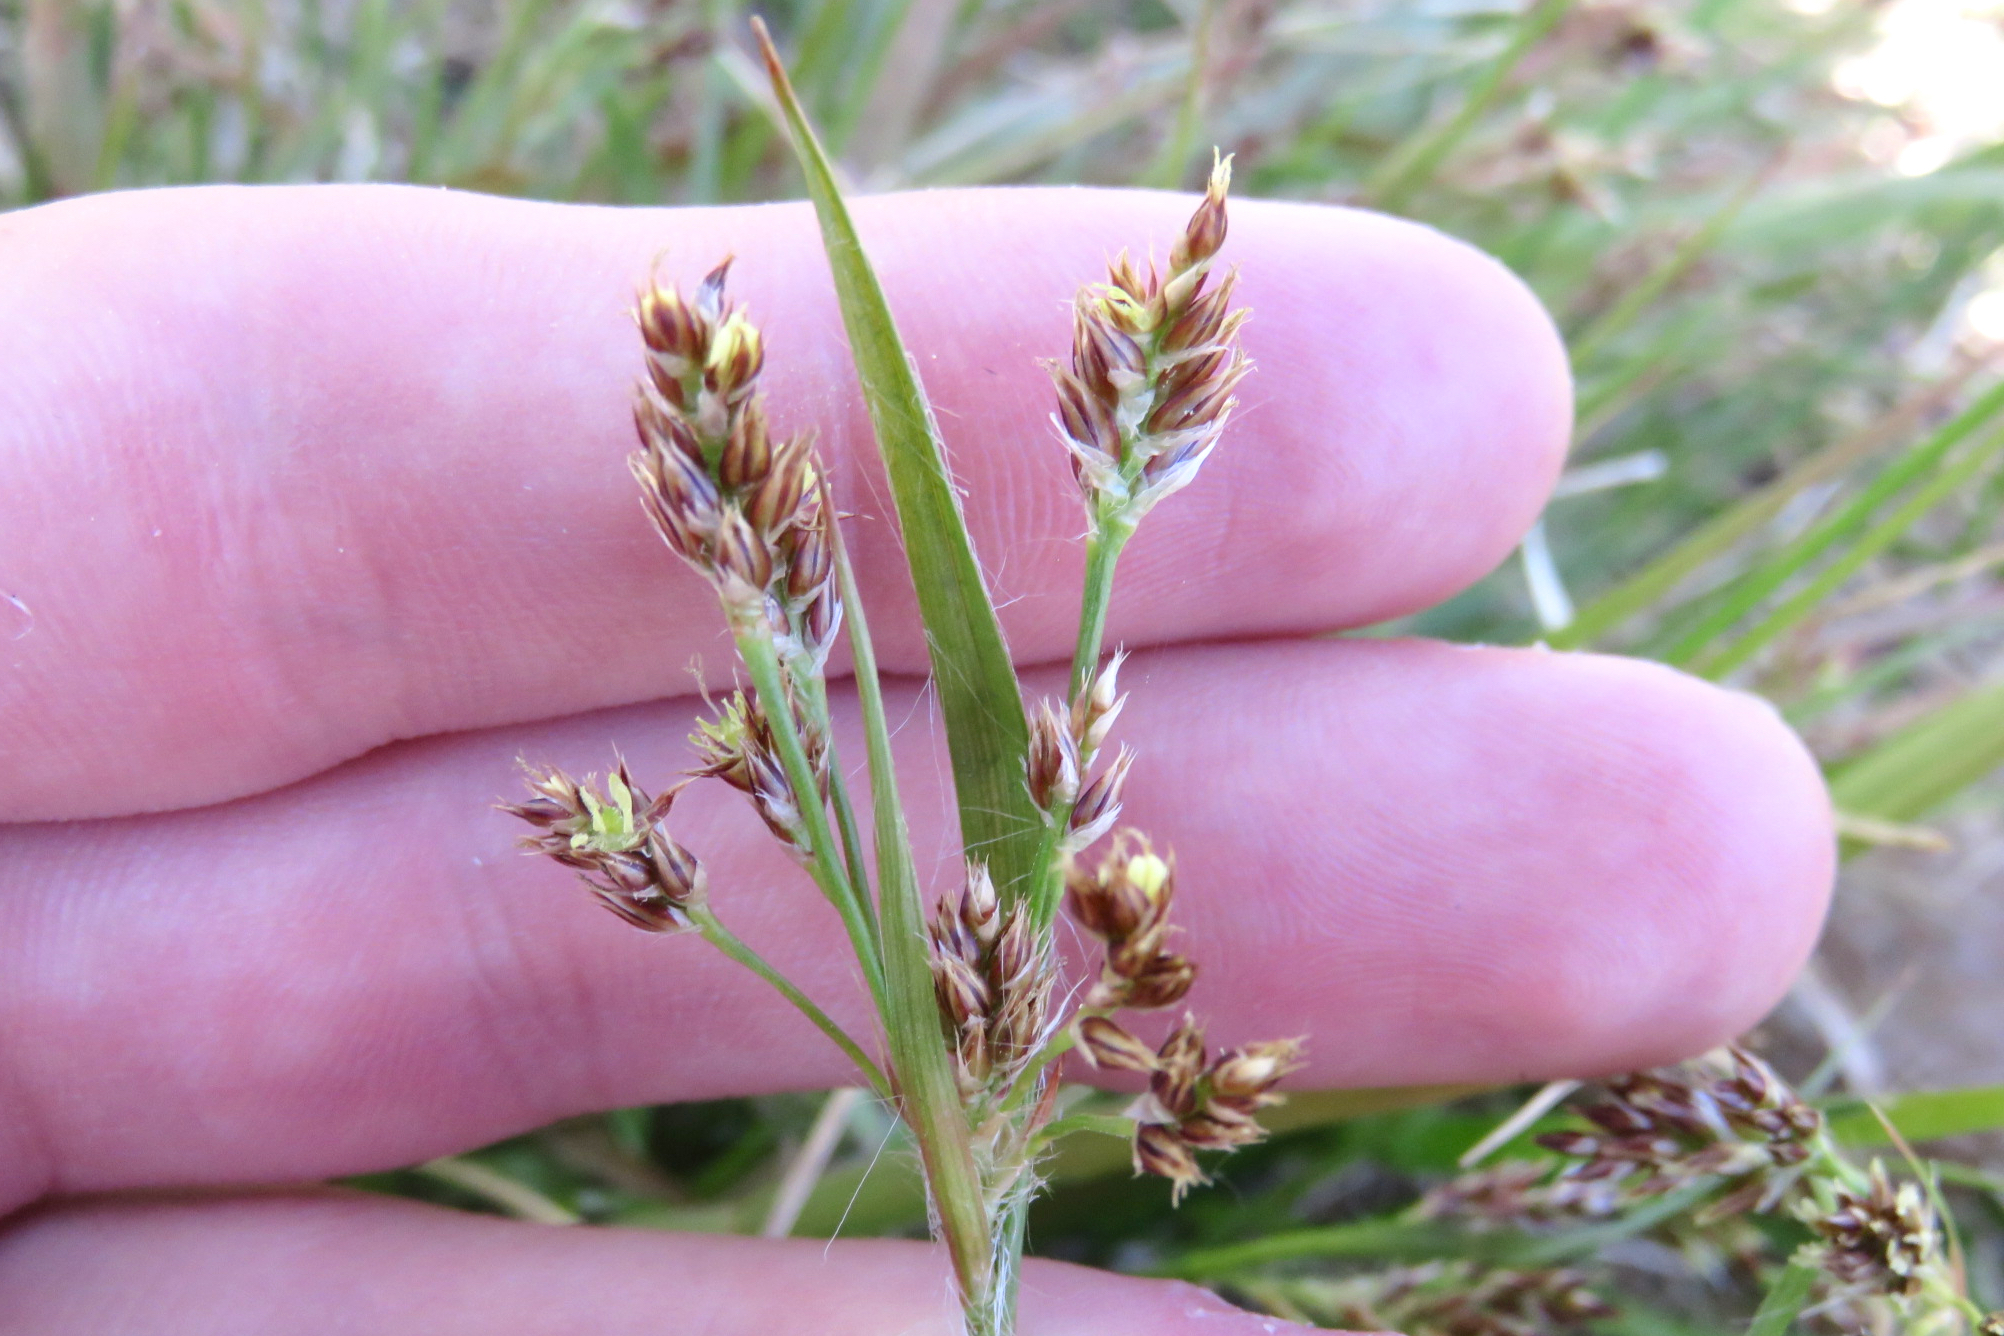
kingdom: Plantae
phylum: Tracheophyta
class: Liliopsida
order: Poales
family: Juncaceae
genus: Luzula
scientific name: Luzula multiflora
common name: Heath wood-rush
